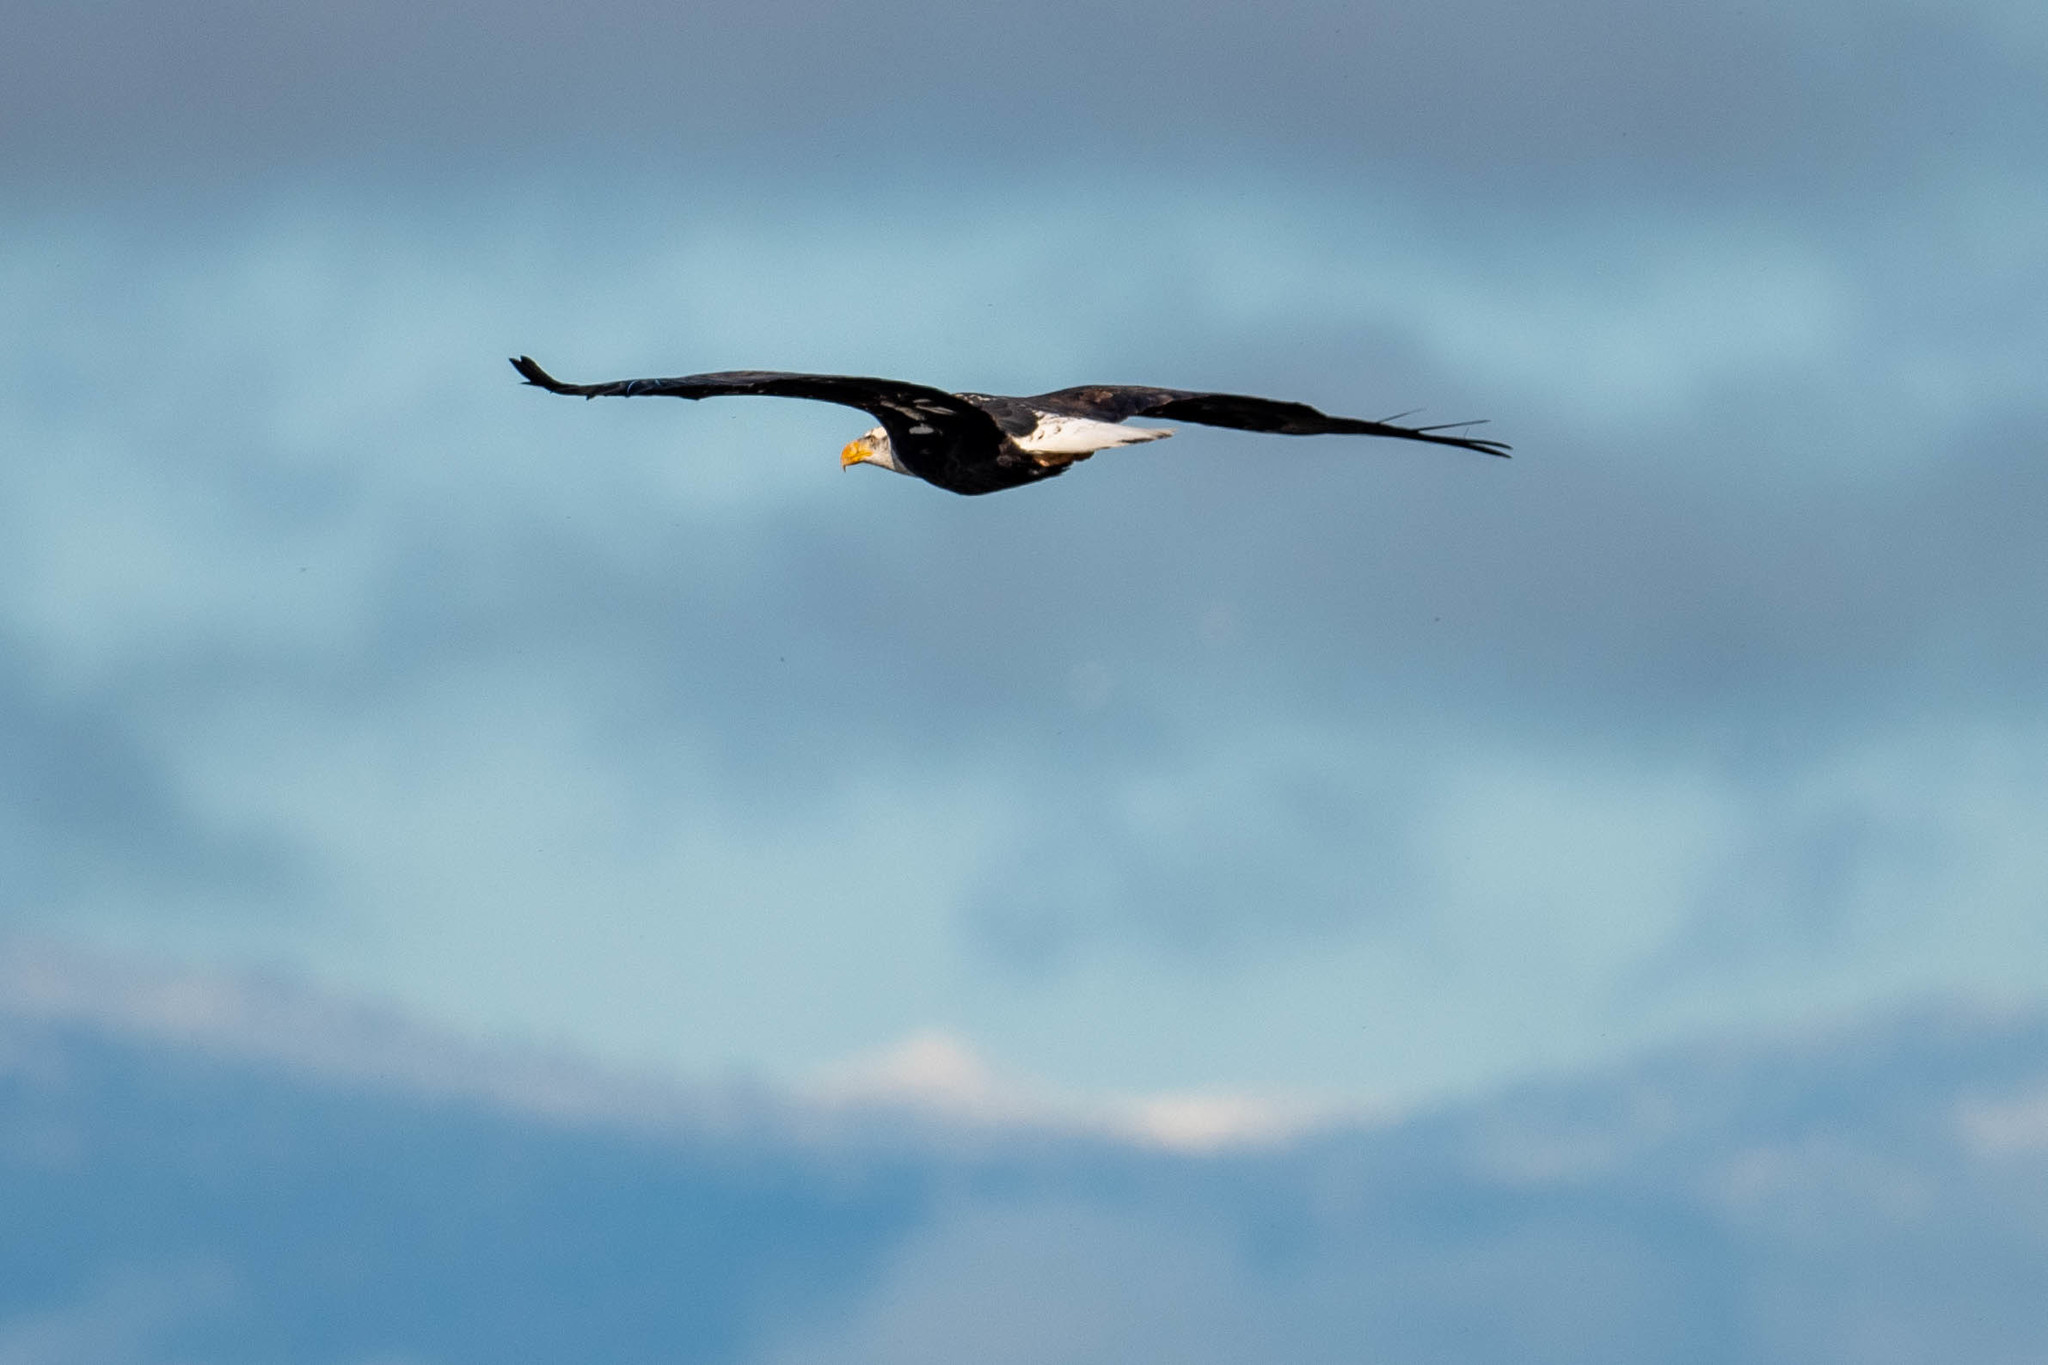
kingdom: Animalia
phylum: Chordata
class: Aves
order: Accipitriformes
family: Accipitridae
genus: Haliaeetus
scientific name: Haliaeetus leucocephalus
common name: Bald eagle
